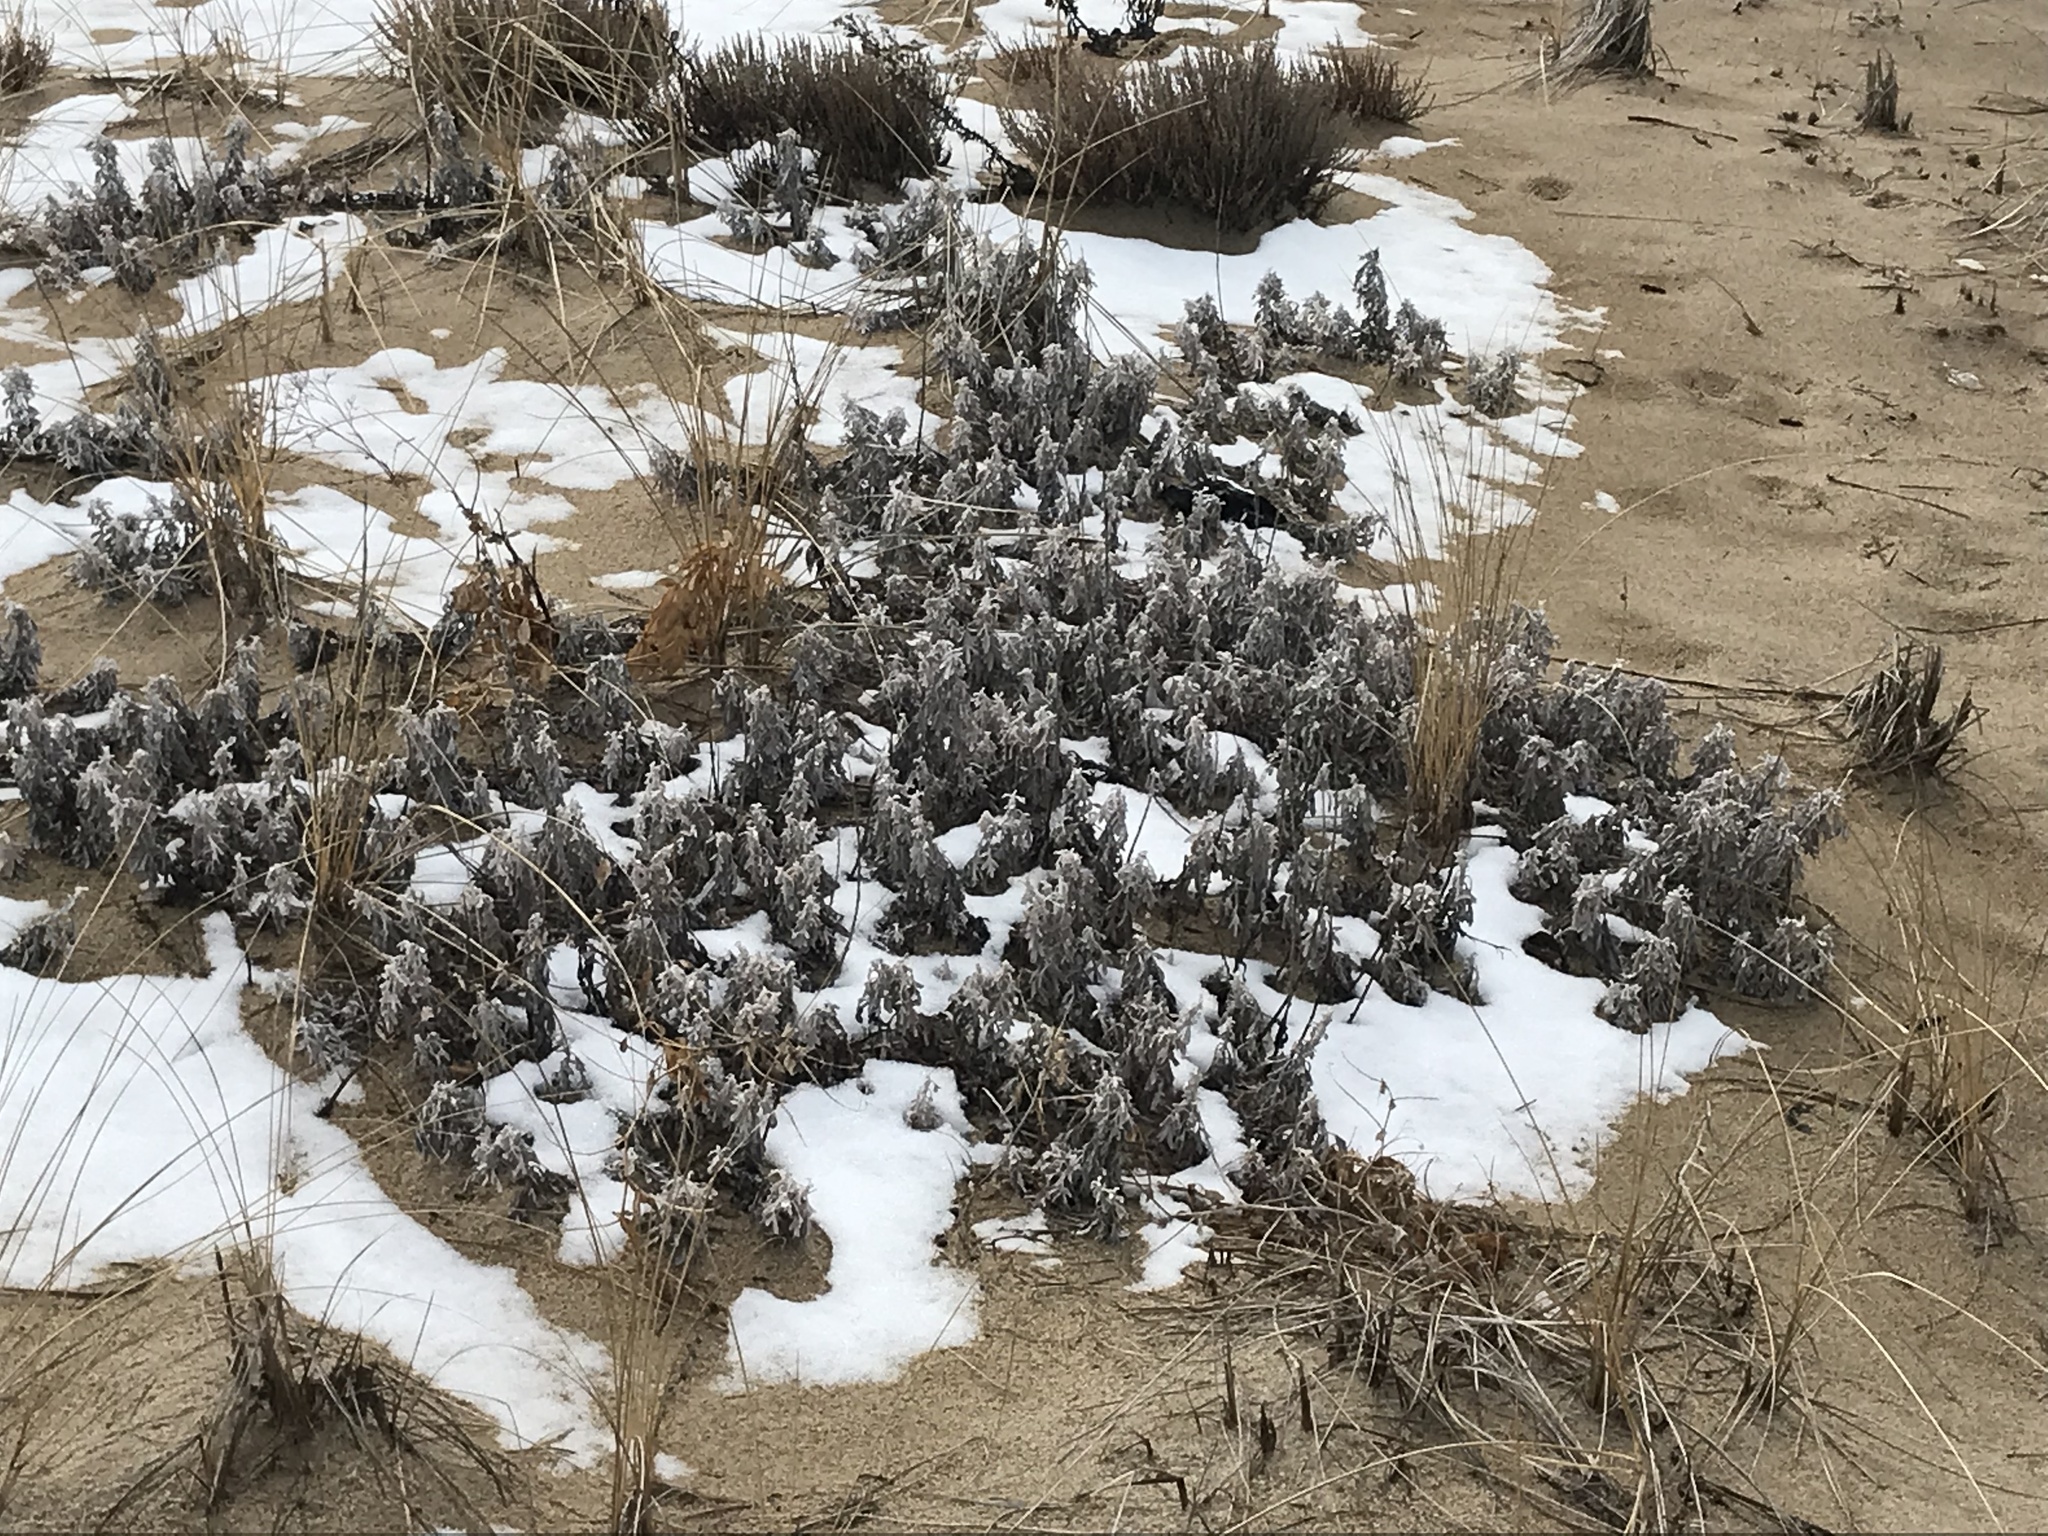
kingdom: Plantae
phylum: Tracheophyta
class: Magnoliopsida
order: Asterales
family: Asteraceae
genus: Artemisia
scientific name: Artemisia stelleriana
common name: Beach wormwood
